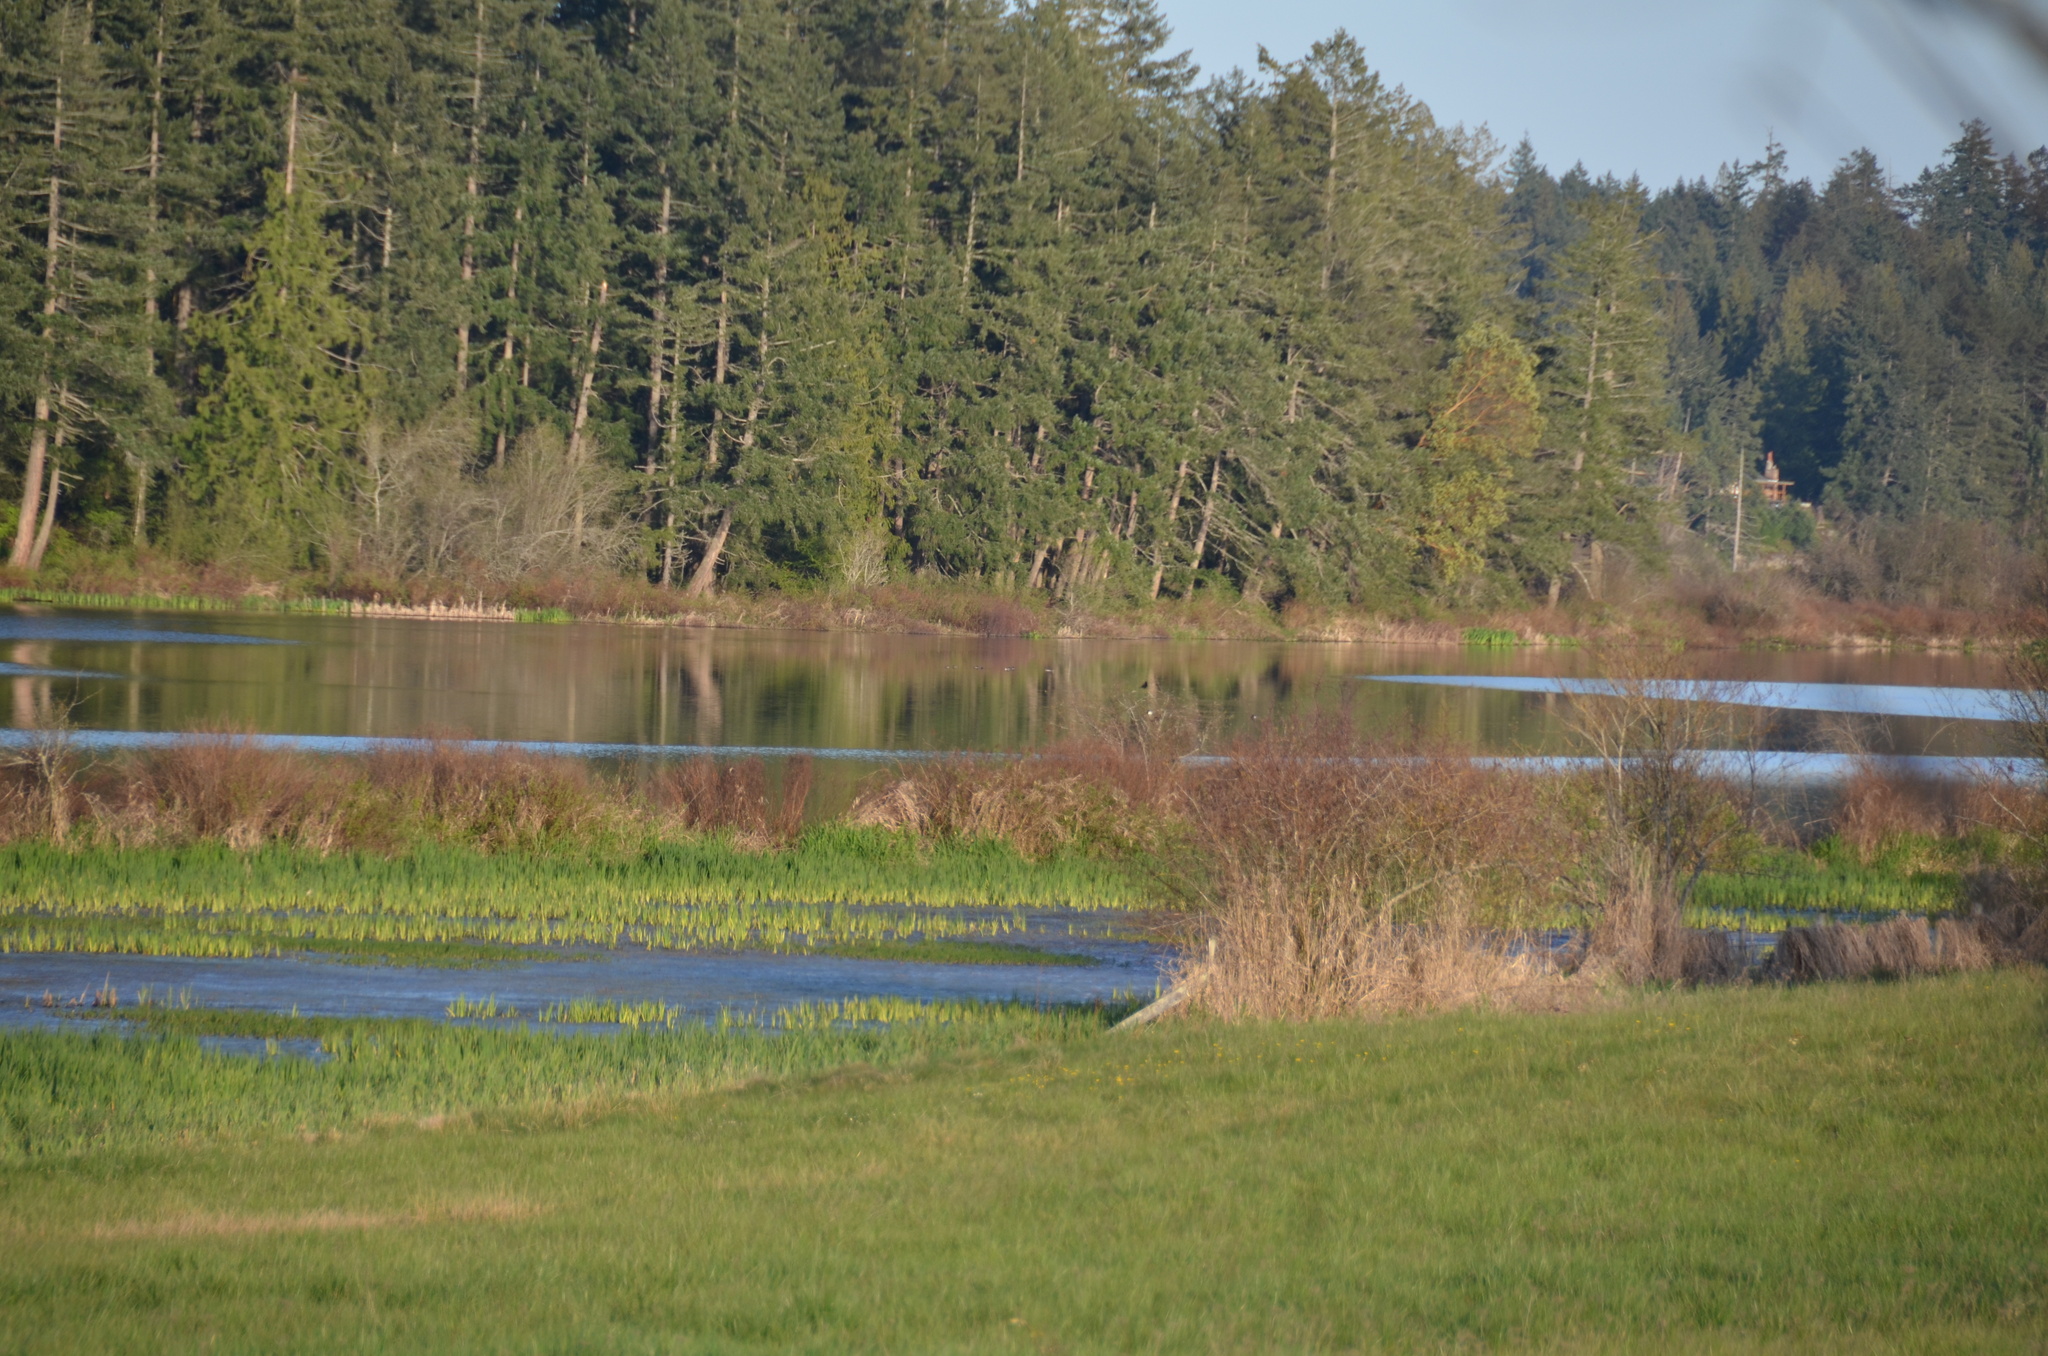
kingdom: Animalia
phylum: Chordata
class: Aves
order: Passeriformes
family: Icteridae
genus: Agelaius
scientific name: Agelaius phoeniceus
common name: Red-winged blackbird
